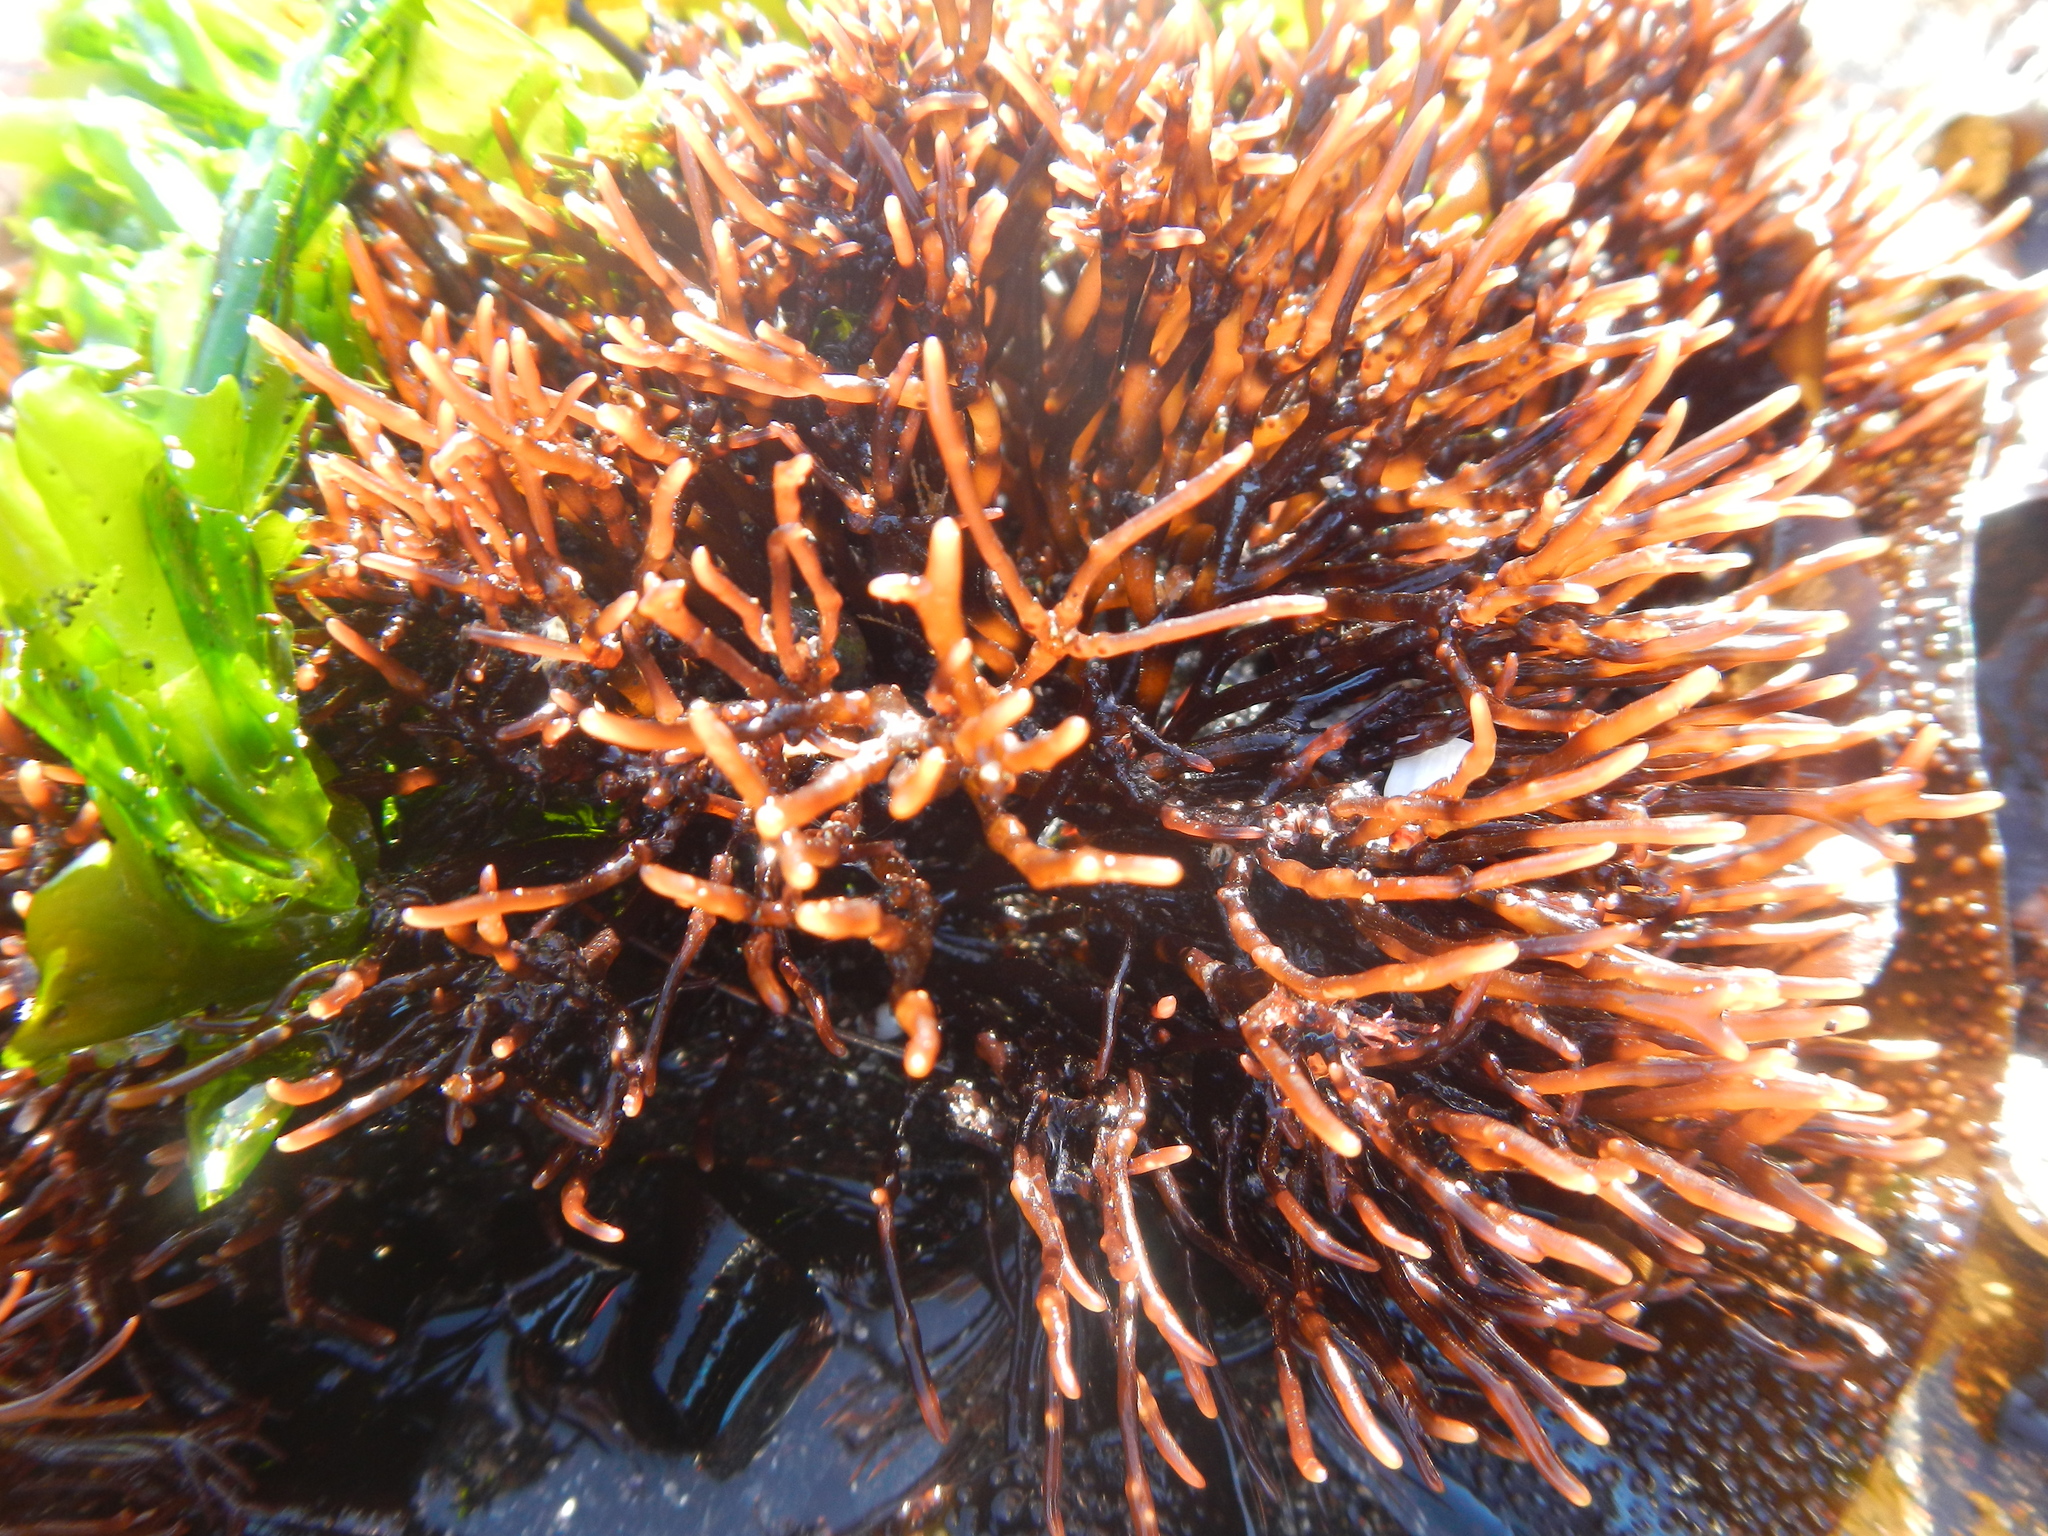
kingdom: Plantae
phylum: Rhodophyta
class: Florideophyceae
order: Gigartinales
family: Phyllophoraceae
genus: Gymnogongrus
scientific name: Gymnogongrus durvillei
